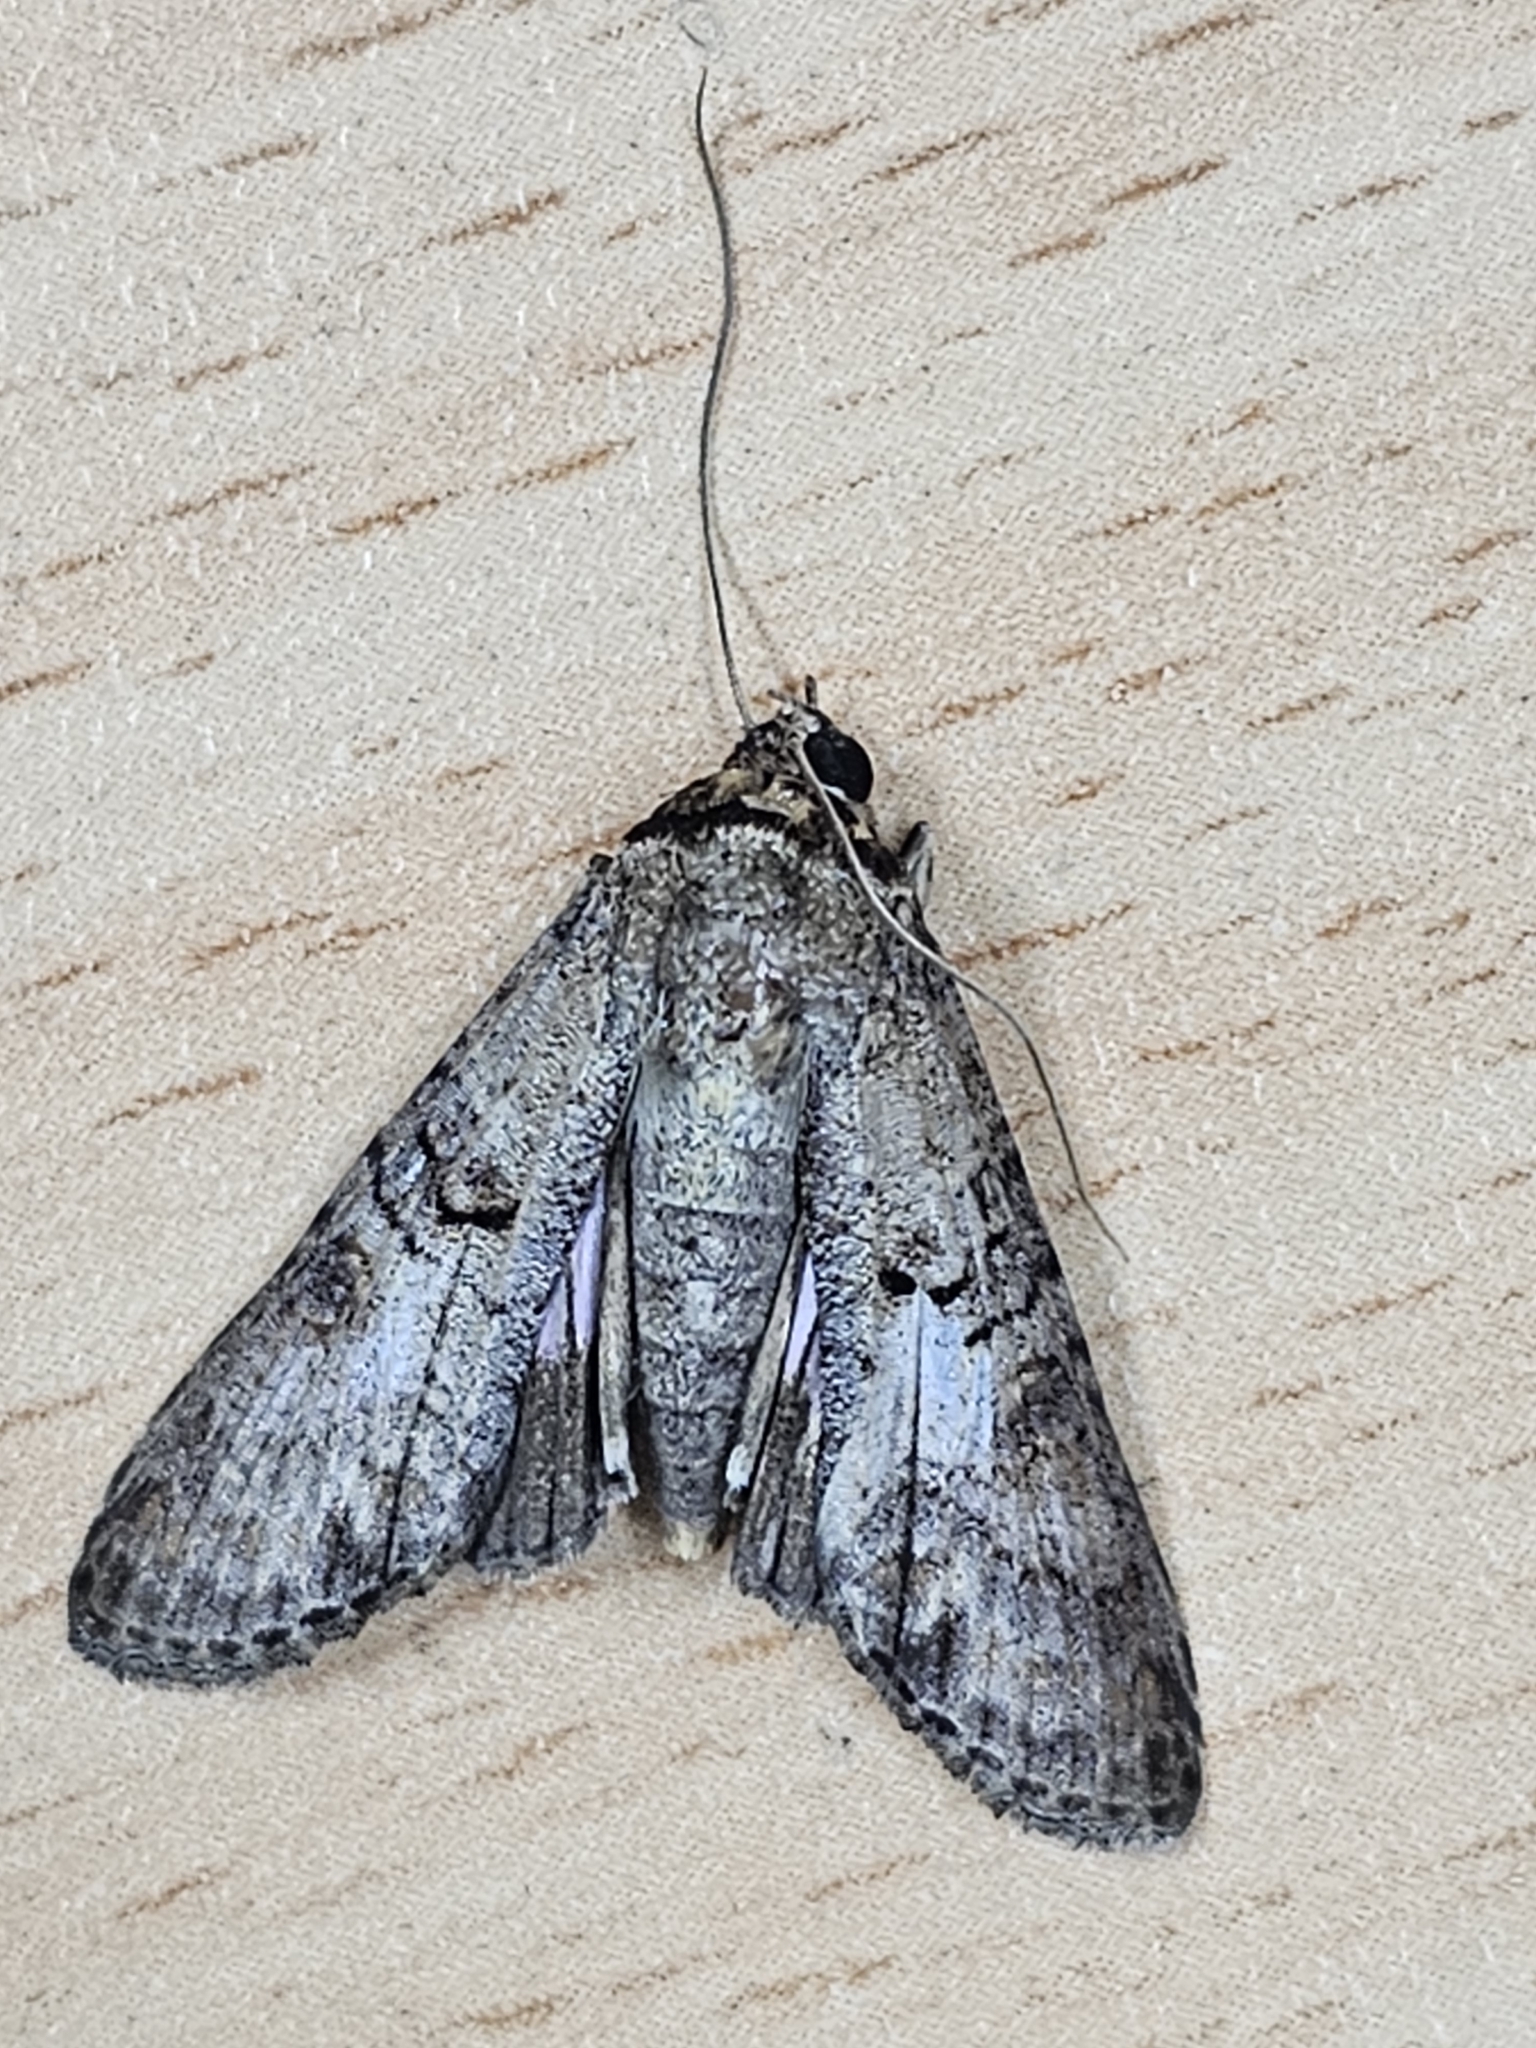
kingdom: Animalia
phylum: Arthropoda
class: Insecta
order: Hemiptera
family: Delphacidae
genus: Nagara
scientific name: Nagara
